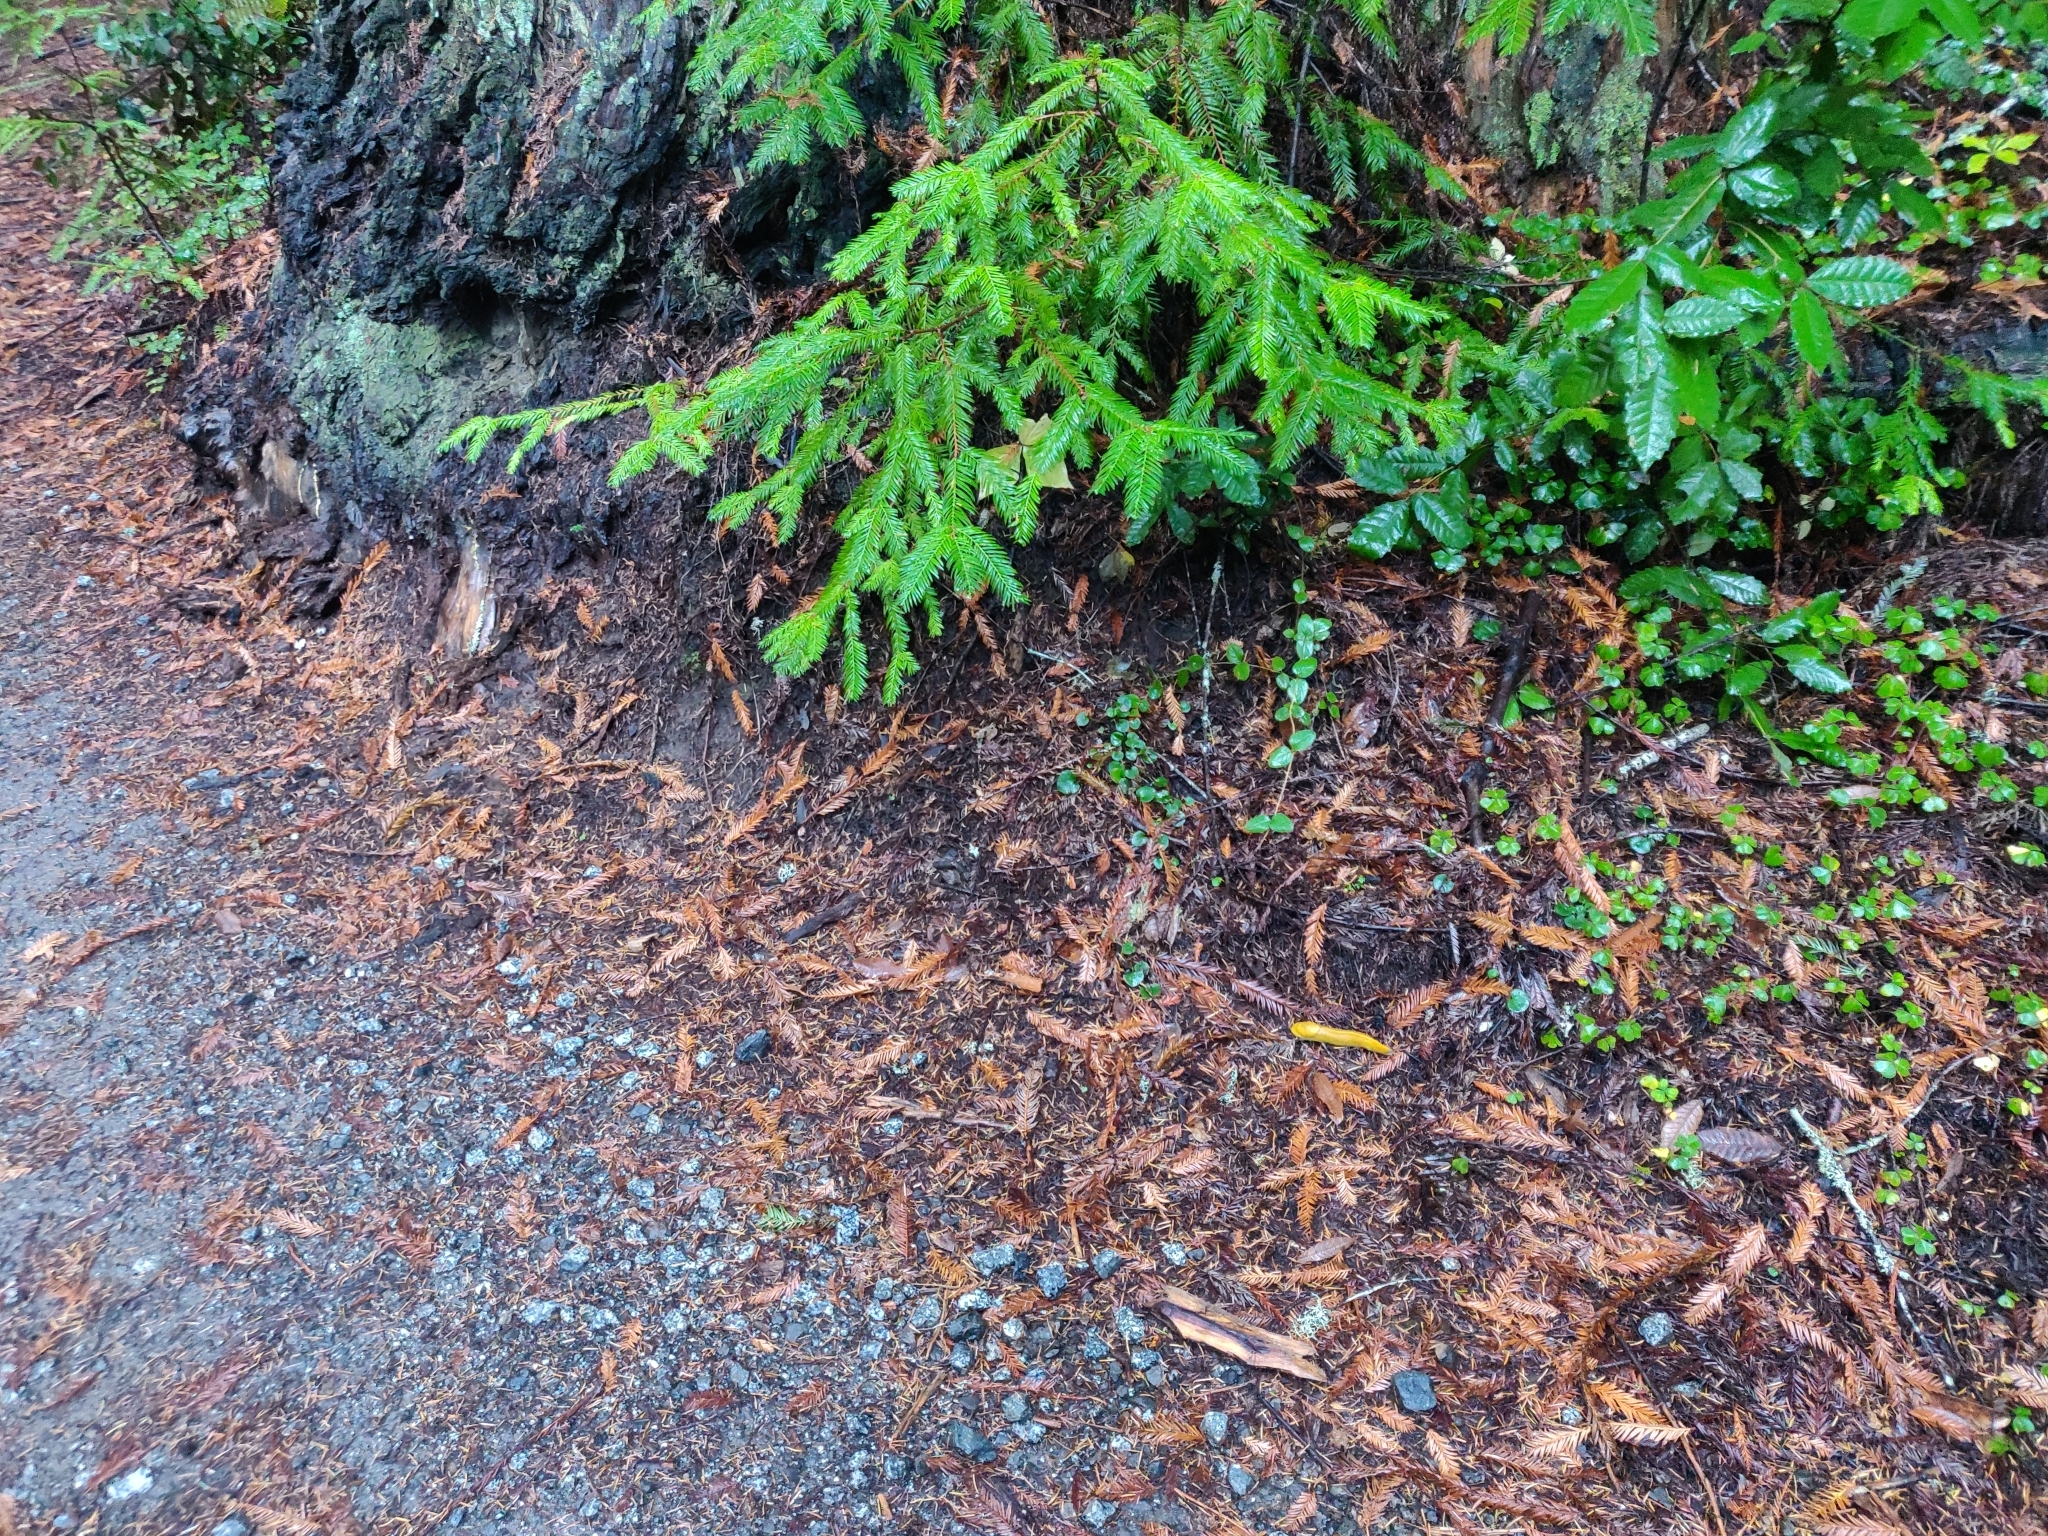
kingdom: Animalia
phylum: Mollusca
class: Gastropoda
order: Stylommatophora
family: Ariolimacidae
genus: Ariolimax
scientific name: Ariolimax californicus
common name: California banana slug
